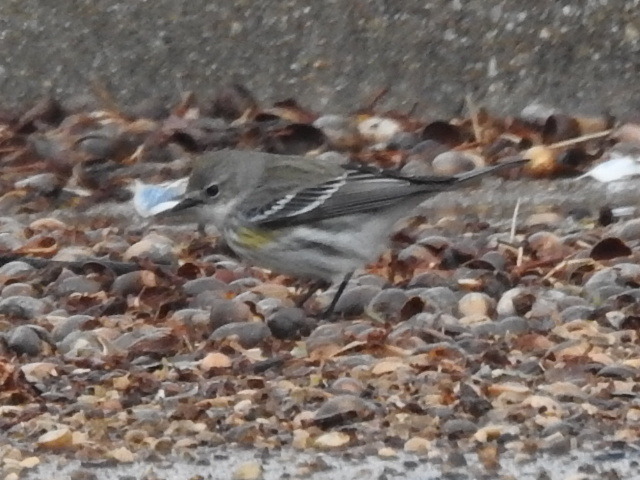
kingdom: Animalia
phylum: Chordata
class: Aves
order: Passeriformes
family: Parulidae
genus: Setophaga
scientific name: Setophaga coronata
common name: Myrtle warbler
